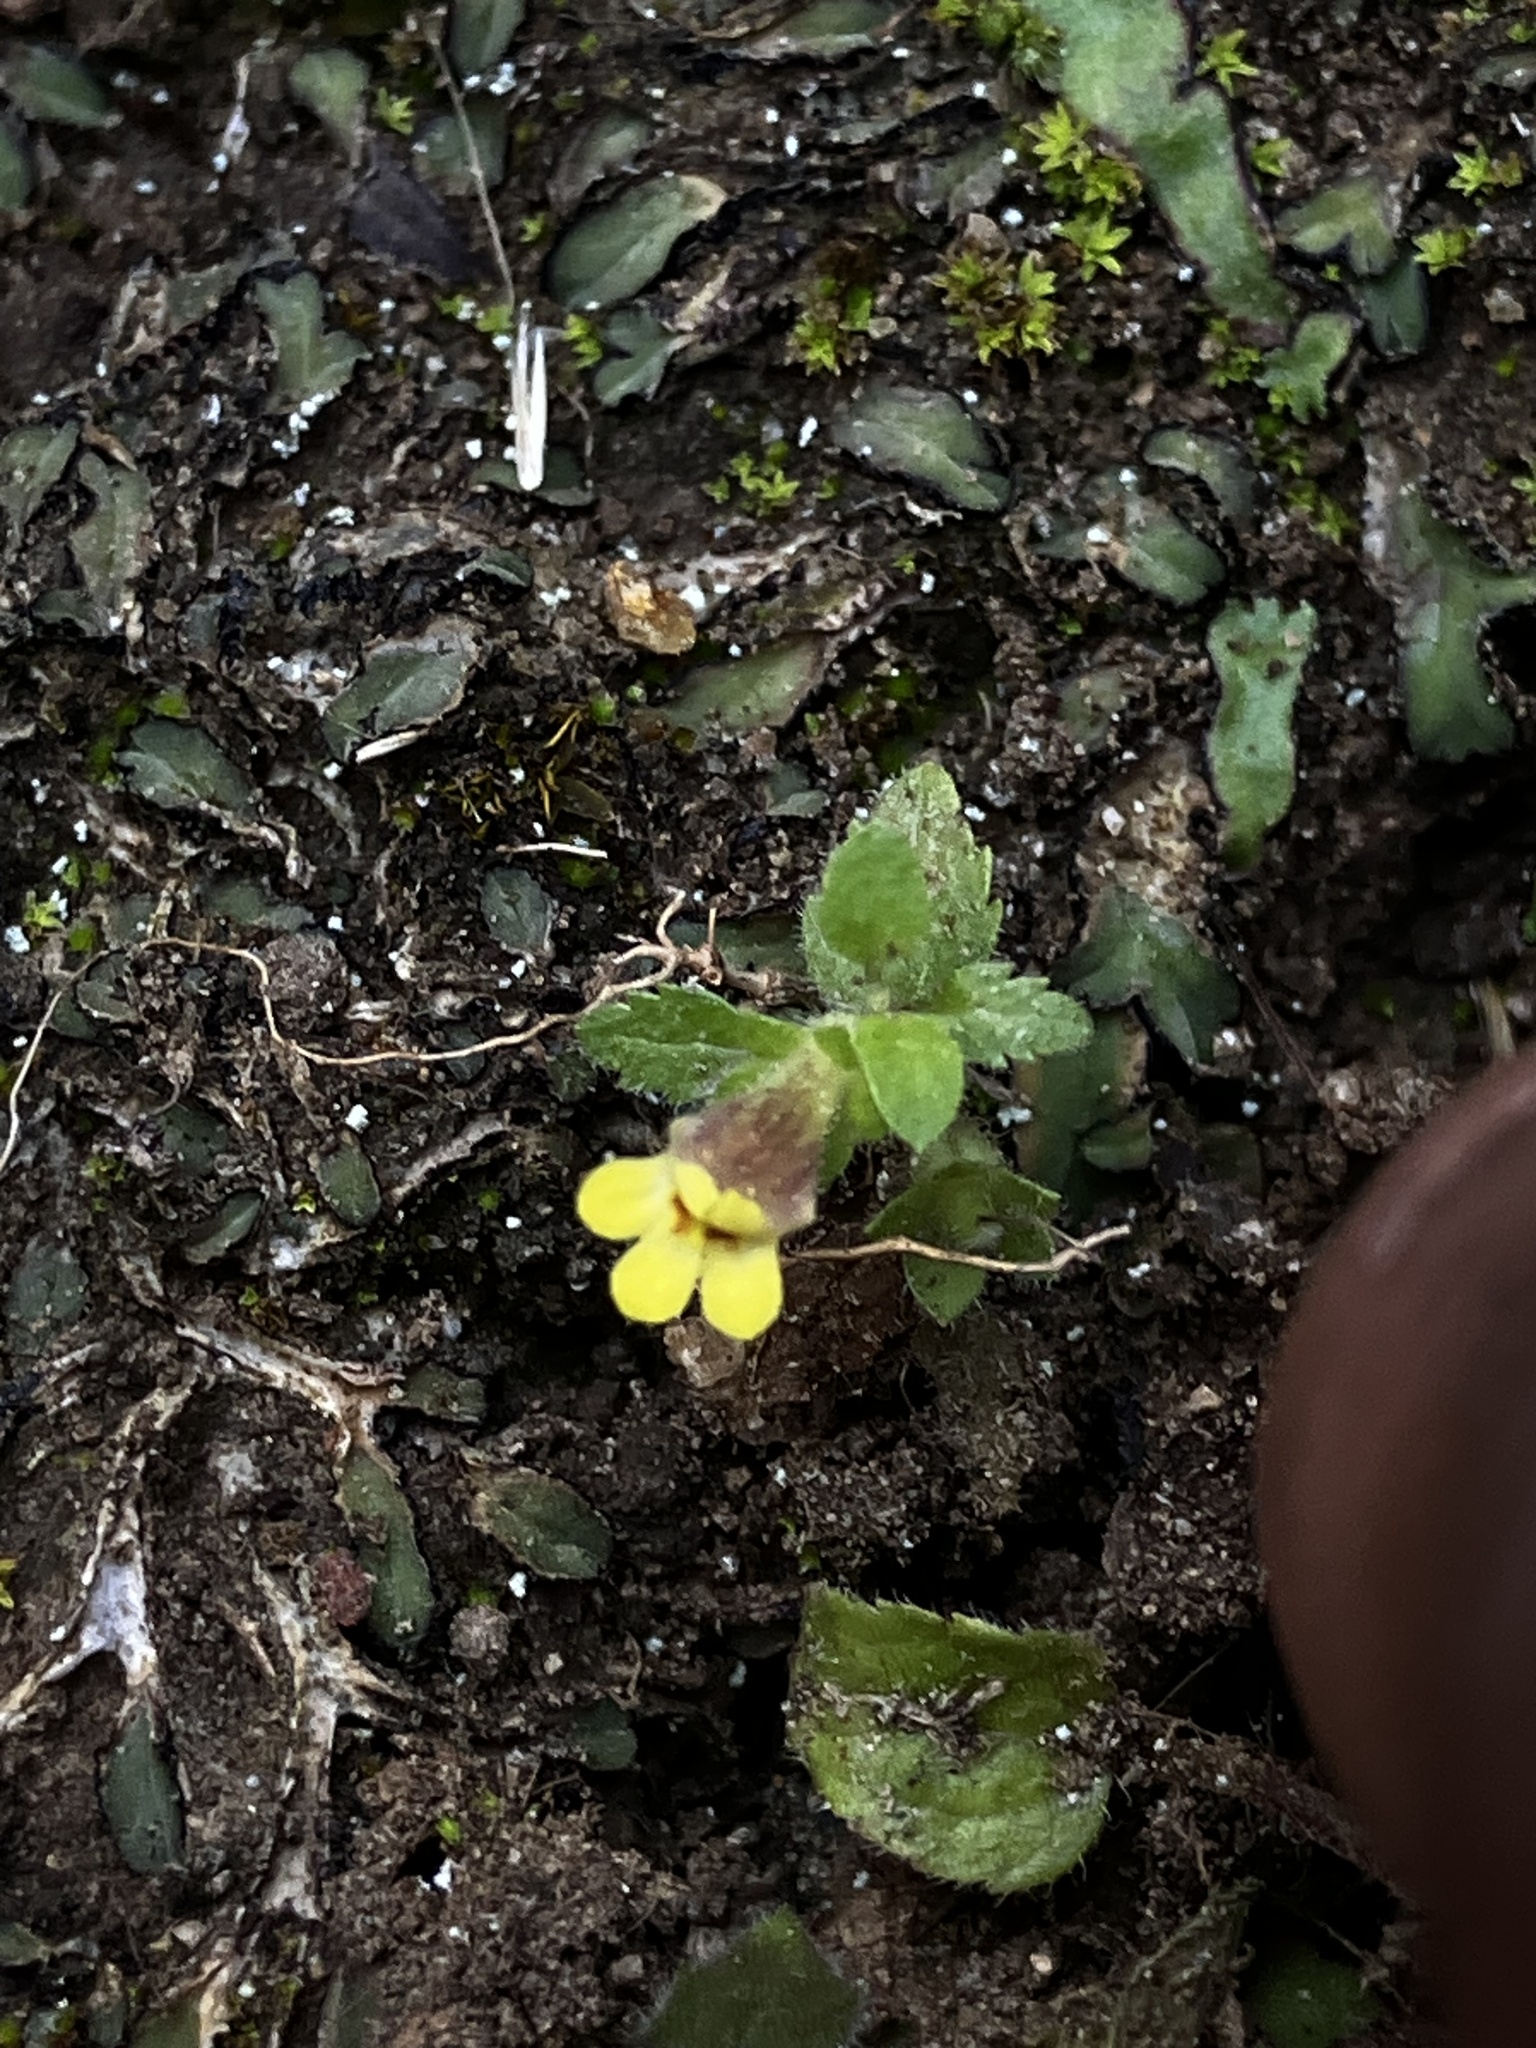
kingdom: Plantae
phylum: Tracheophyta
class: Magnoliopsida
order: Lamiales
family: Orobanchaceae
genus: Lindenbergia
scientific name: Lindenbergia indica
